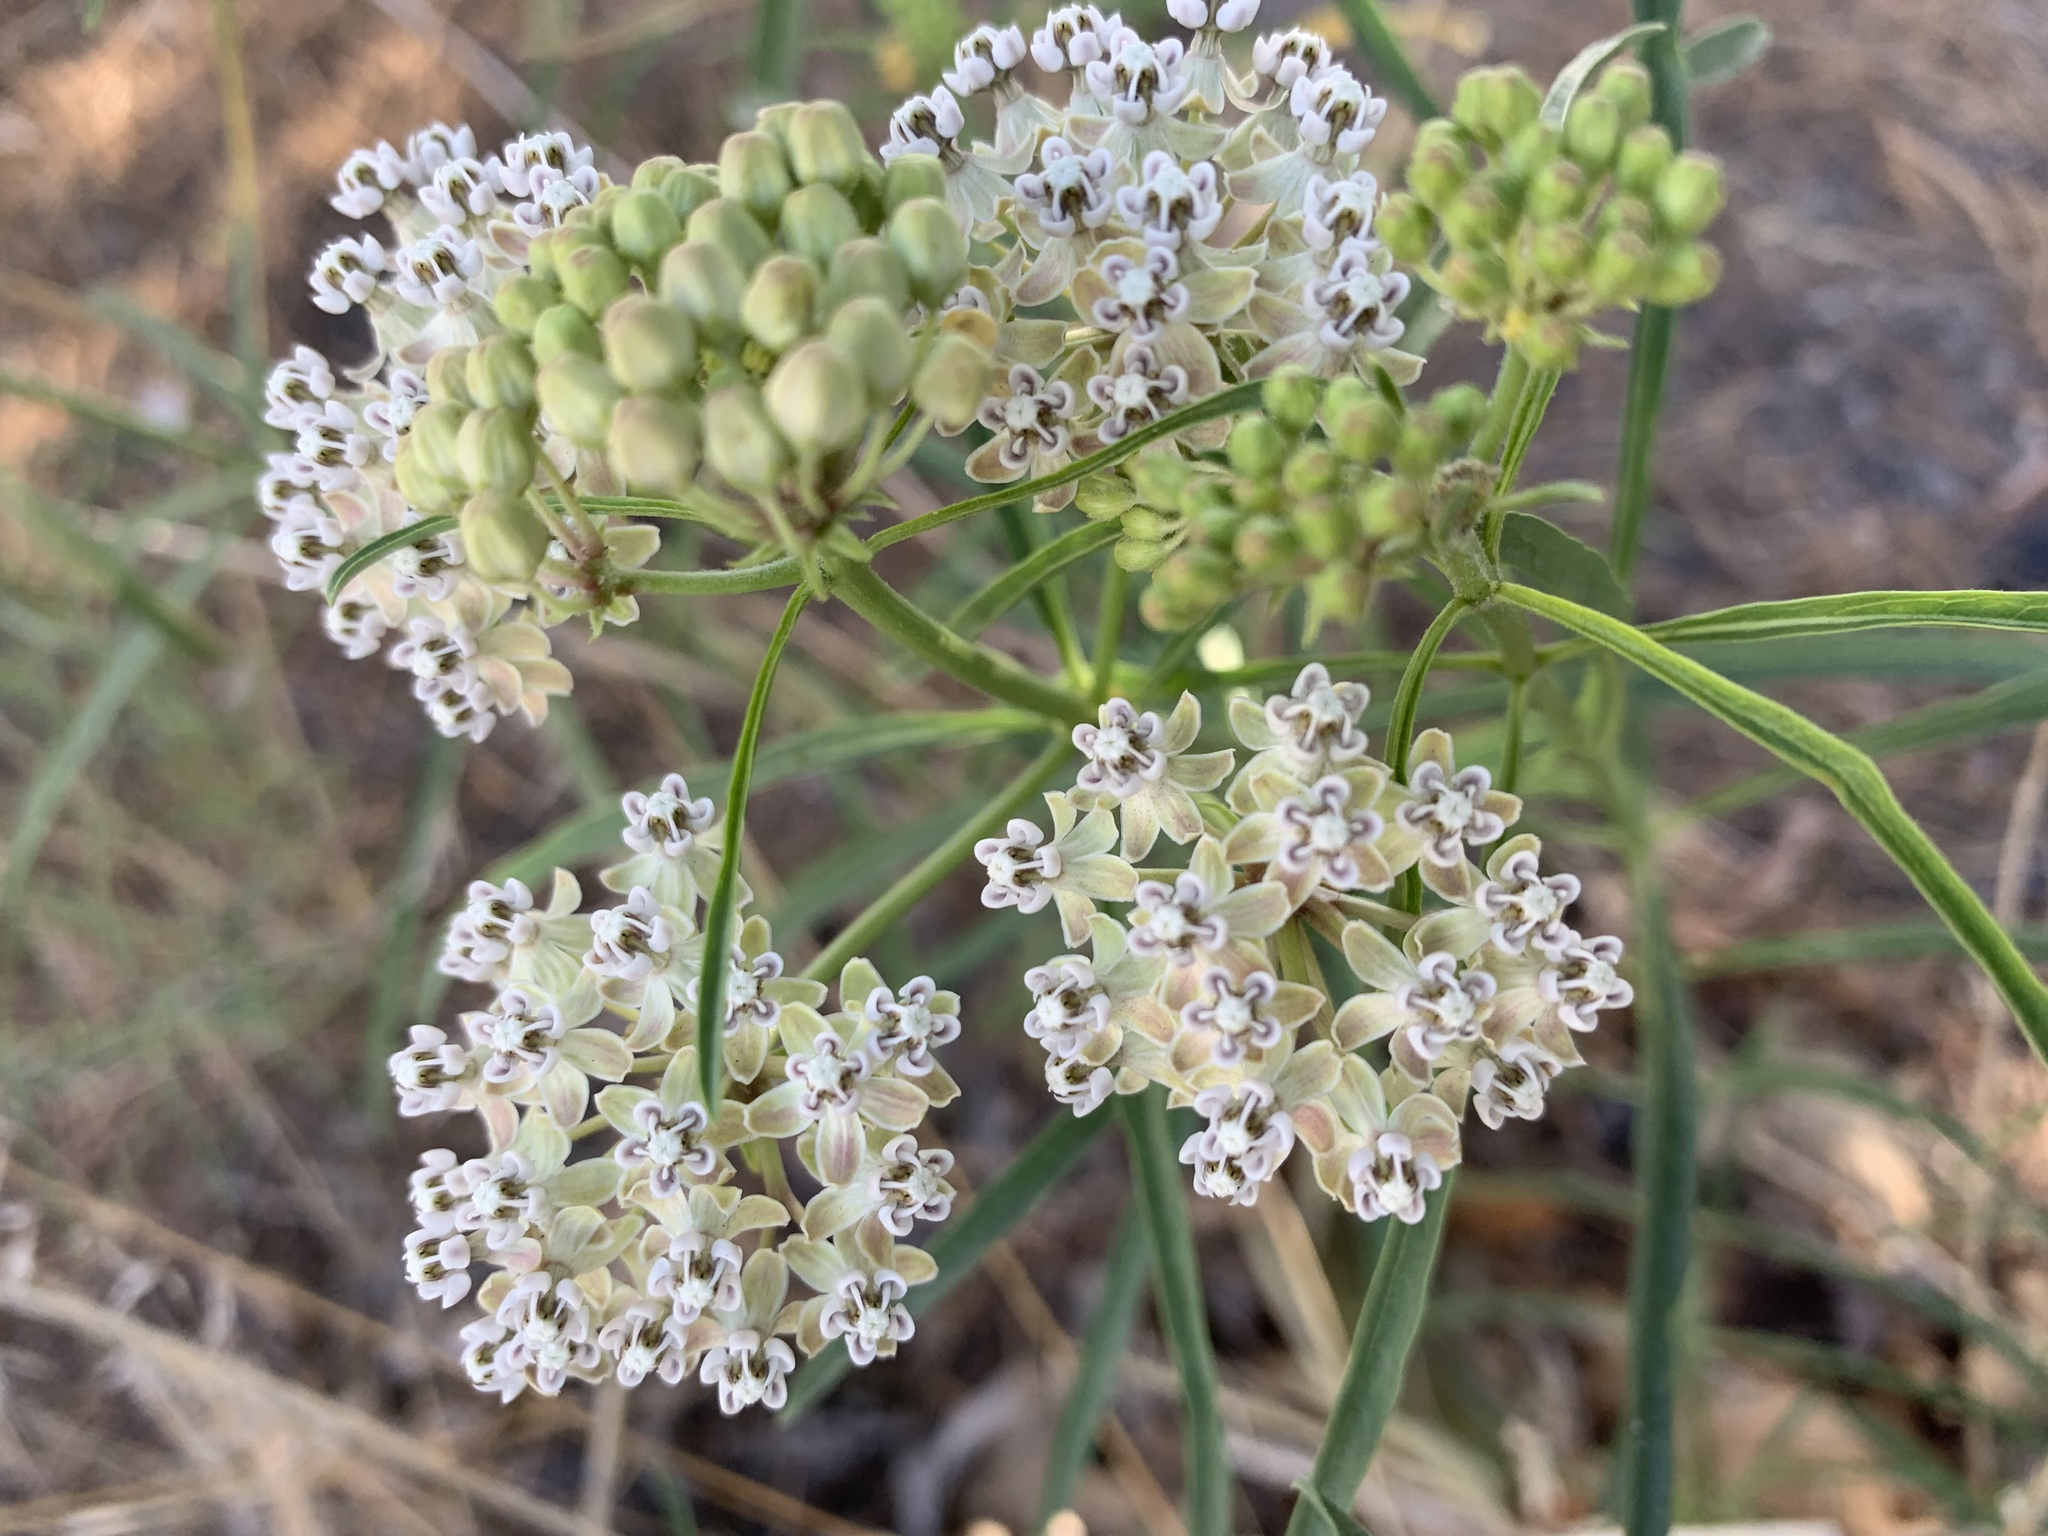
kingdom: Plantae
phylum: Tracheophyta
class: Magnoliopsida
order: Gentianales
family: Apocynaceae
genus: Asclepias
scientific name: Asclepias fascicularis
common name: Mexican milkweed
